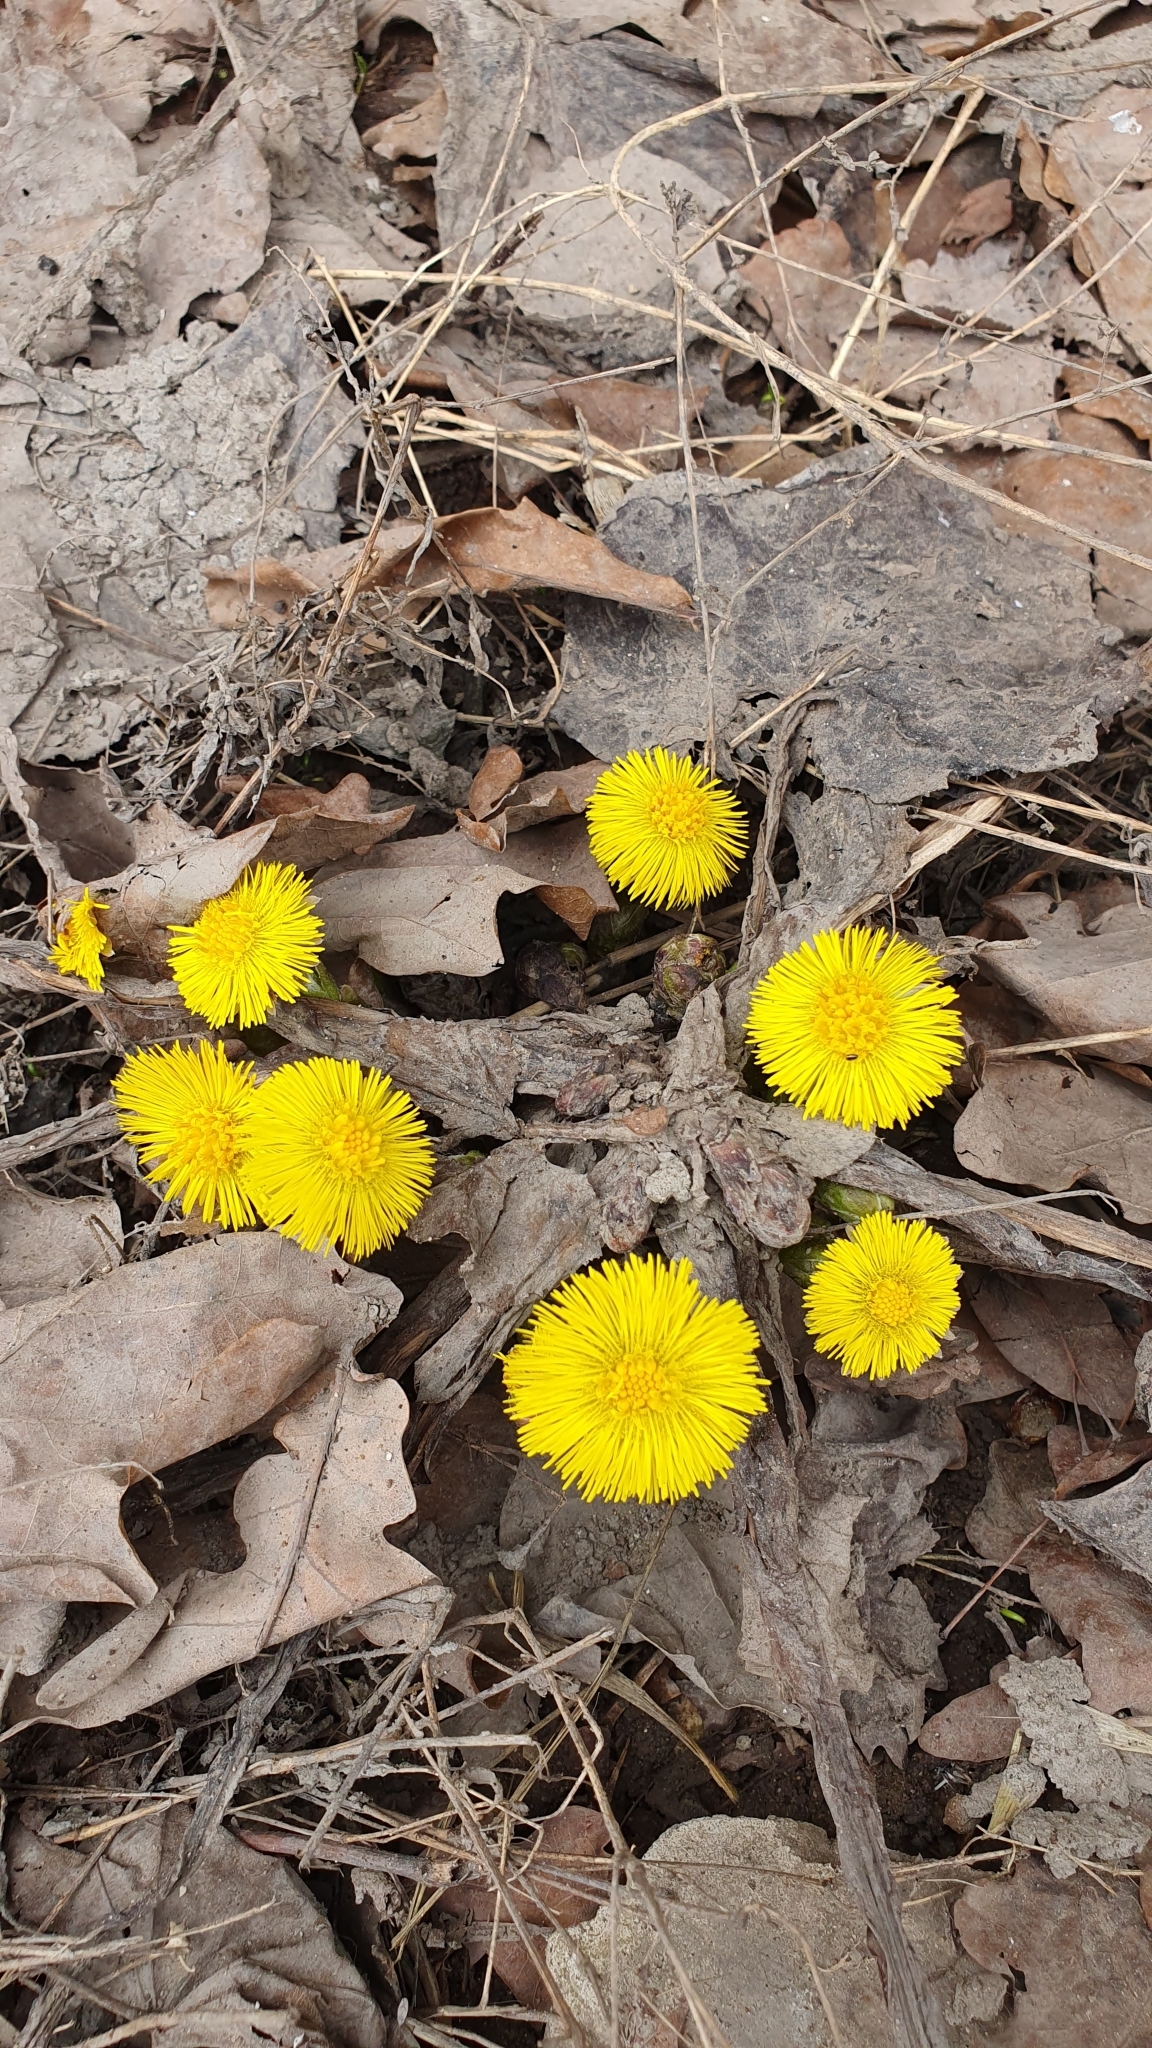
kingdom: Plantae
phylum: Tracheophyta
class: Magnoliopsida
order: Asterales
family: Asteraceae
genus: Tussilago
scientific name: Tussilago farfara
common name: Coltsfoot
